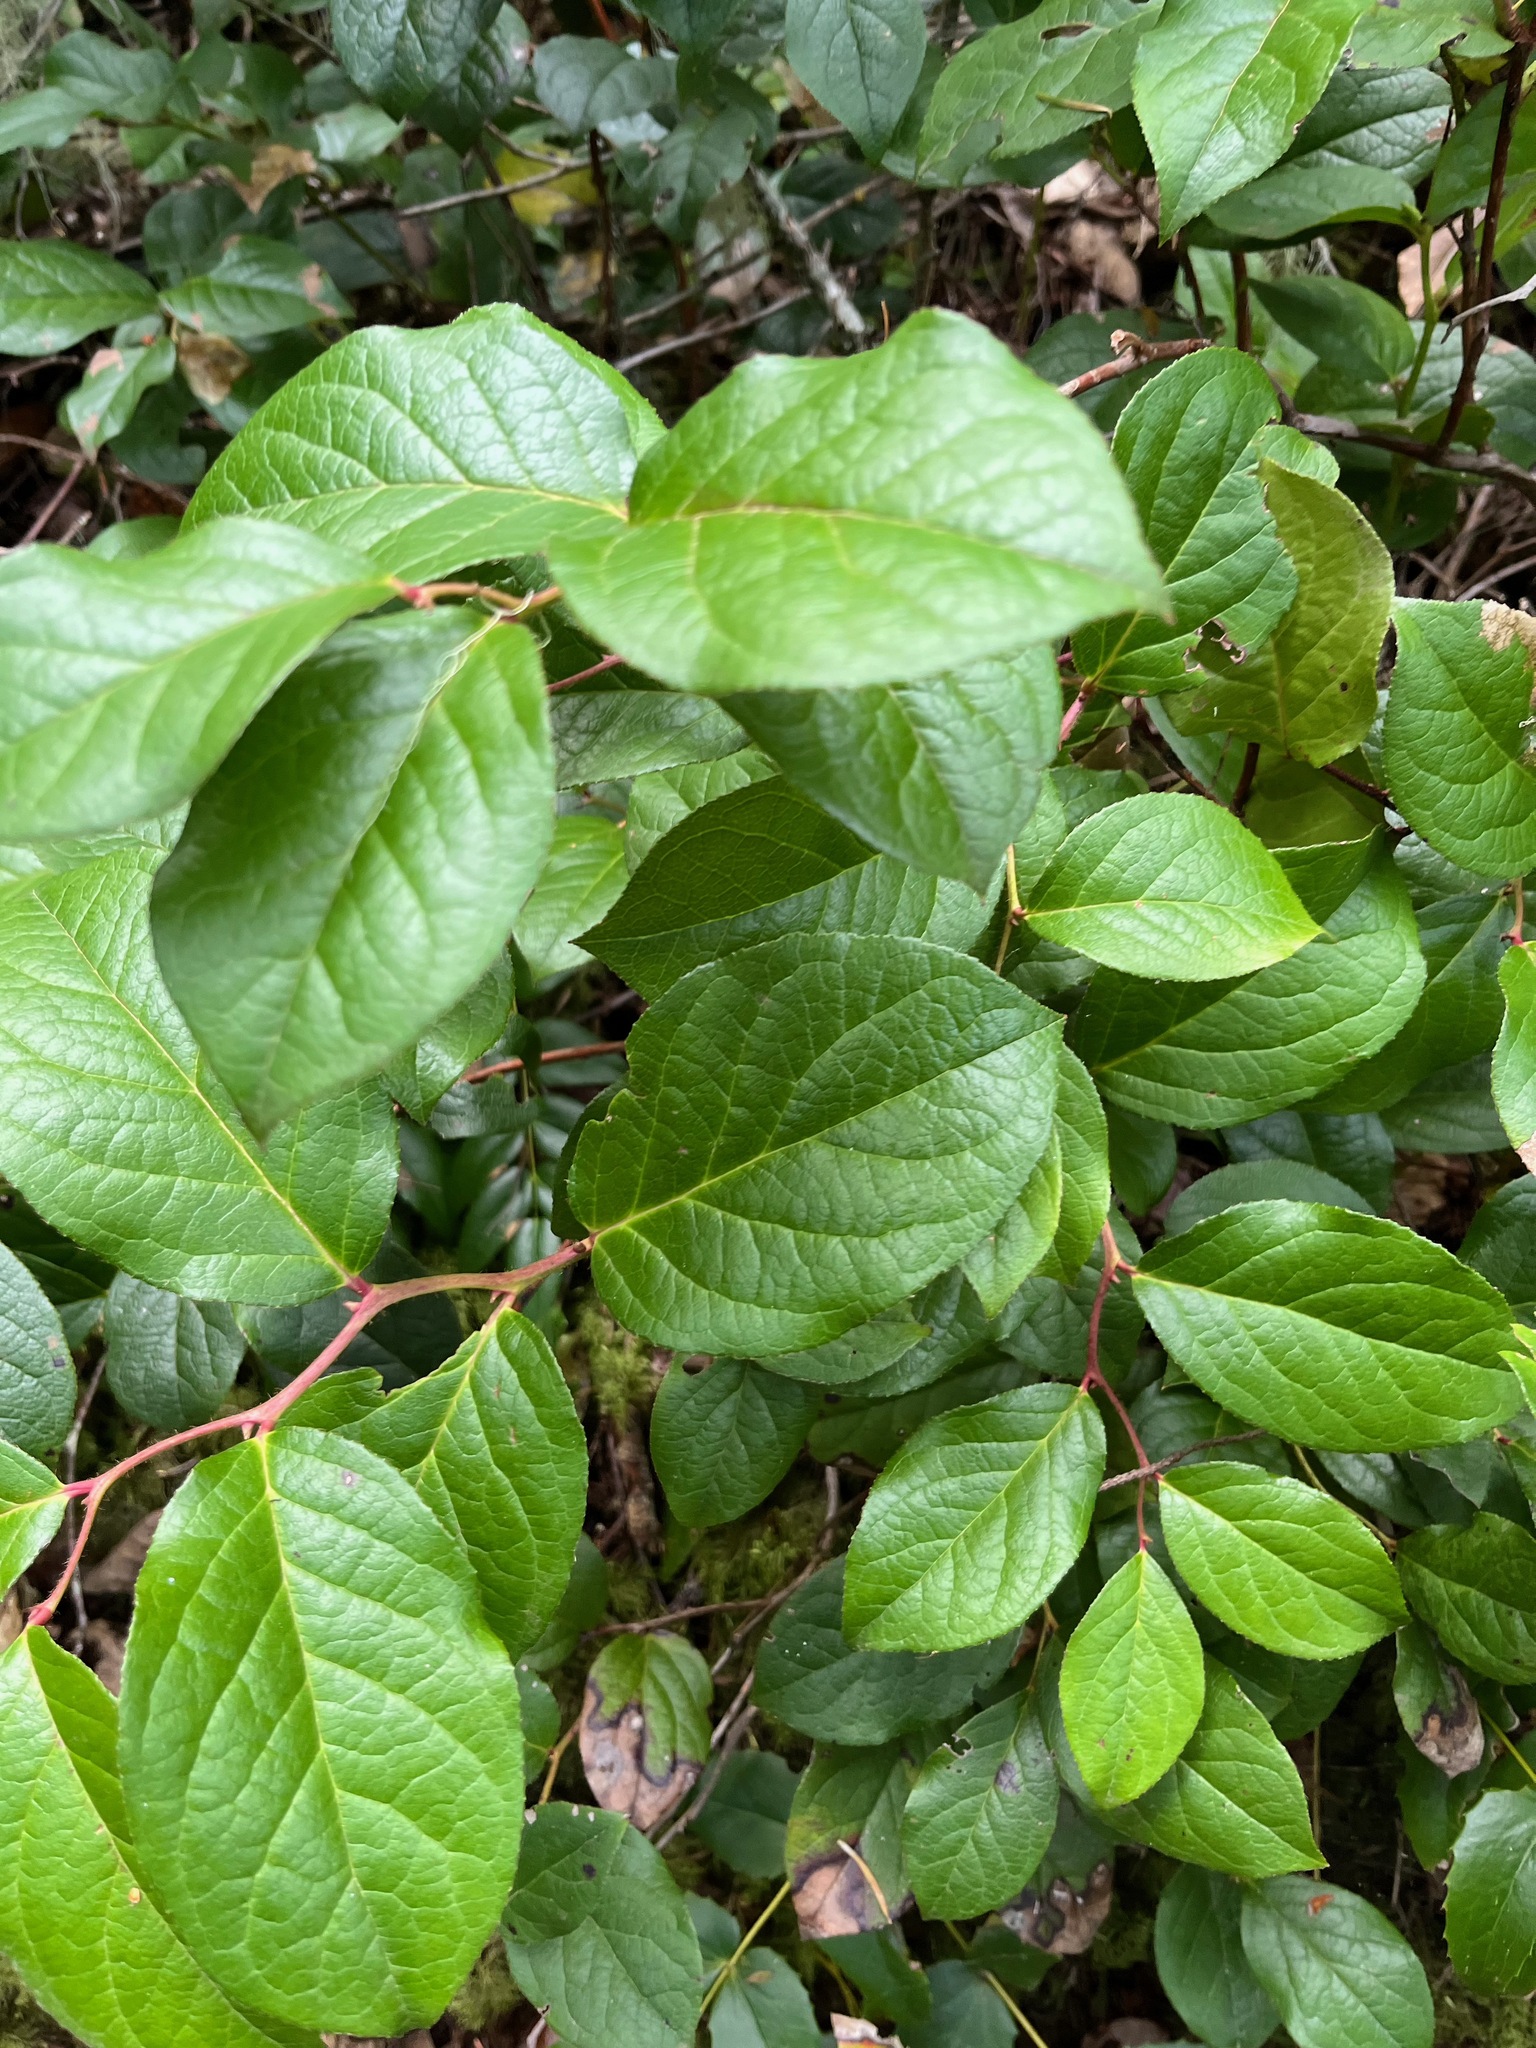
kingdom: Plantae
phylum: Tracheophyta
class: Magnoliopsida
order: Ericales
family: Ericaceae
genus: Gaultheria
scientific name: Gaultheria shallon
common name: Shallon
